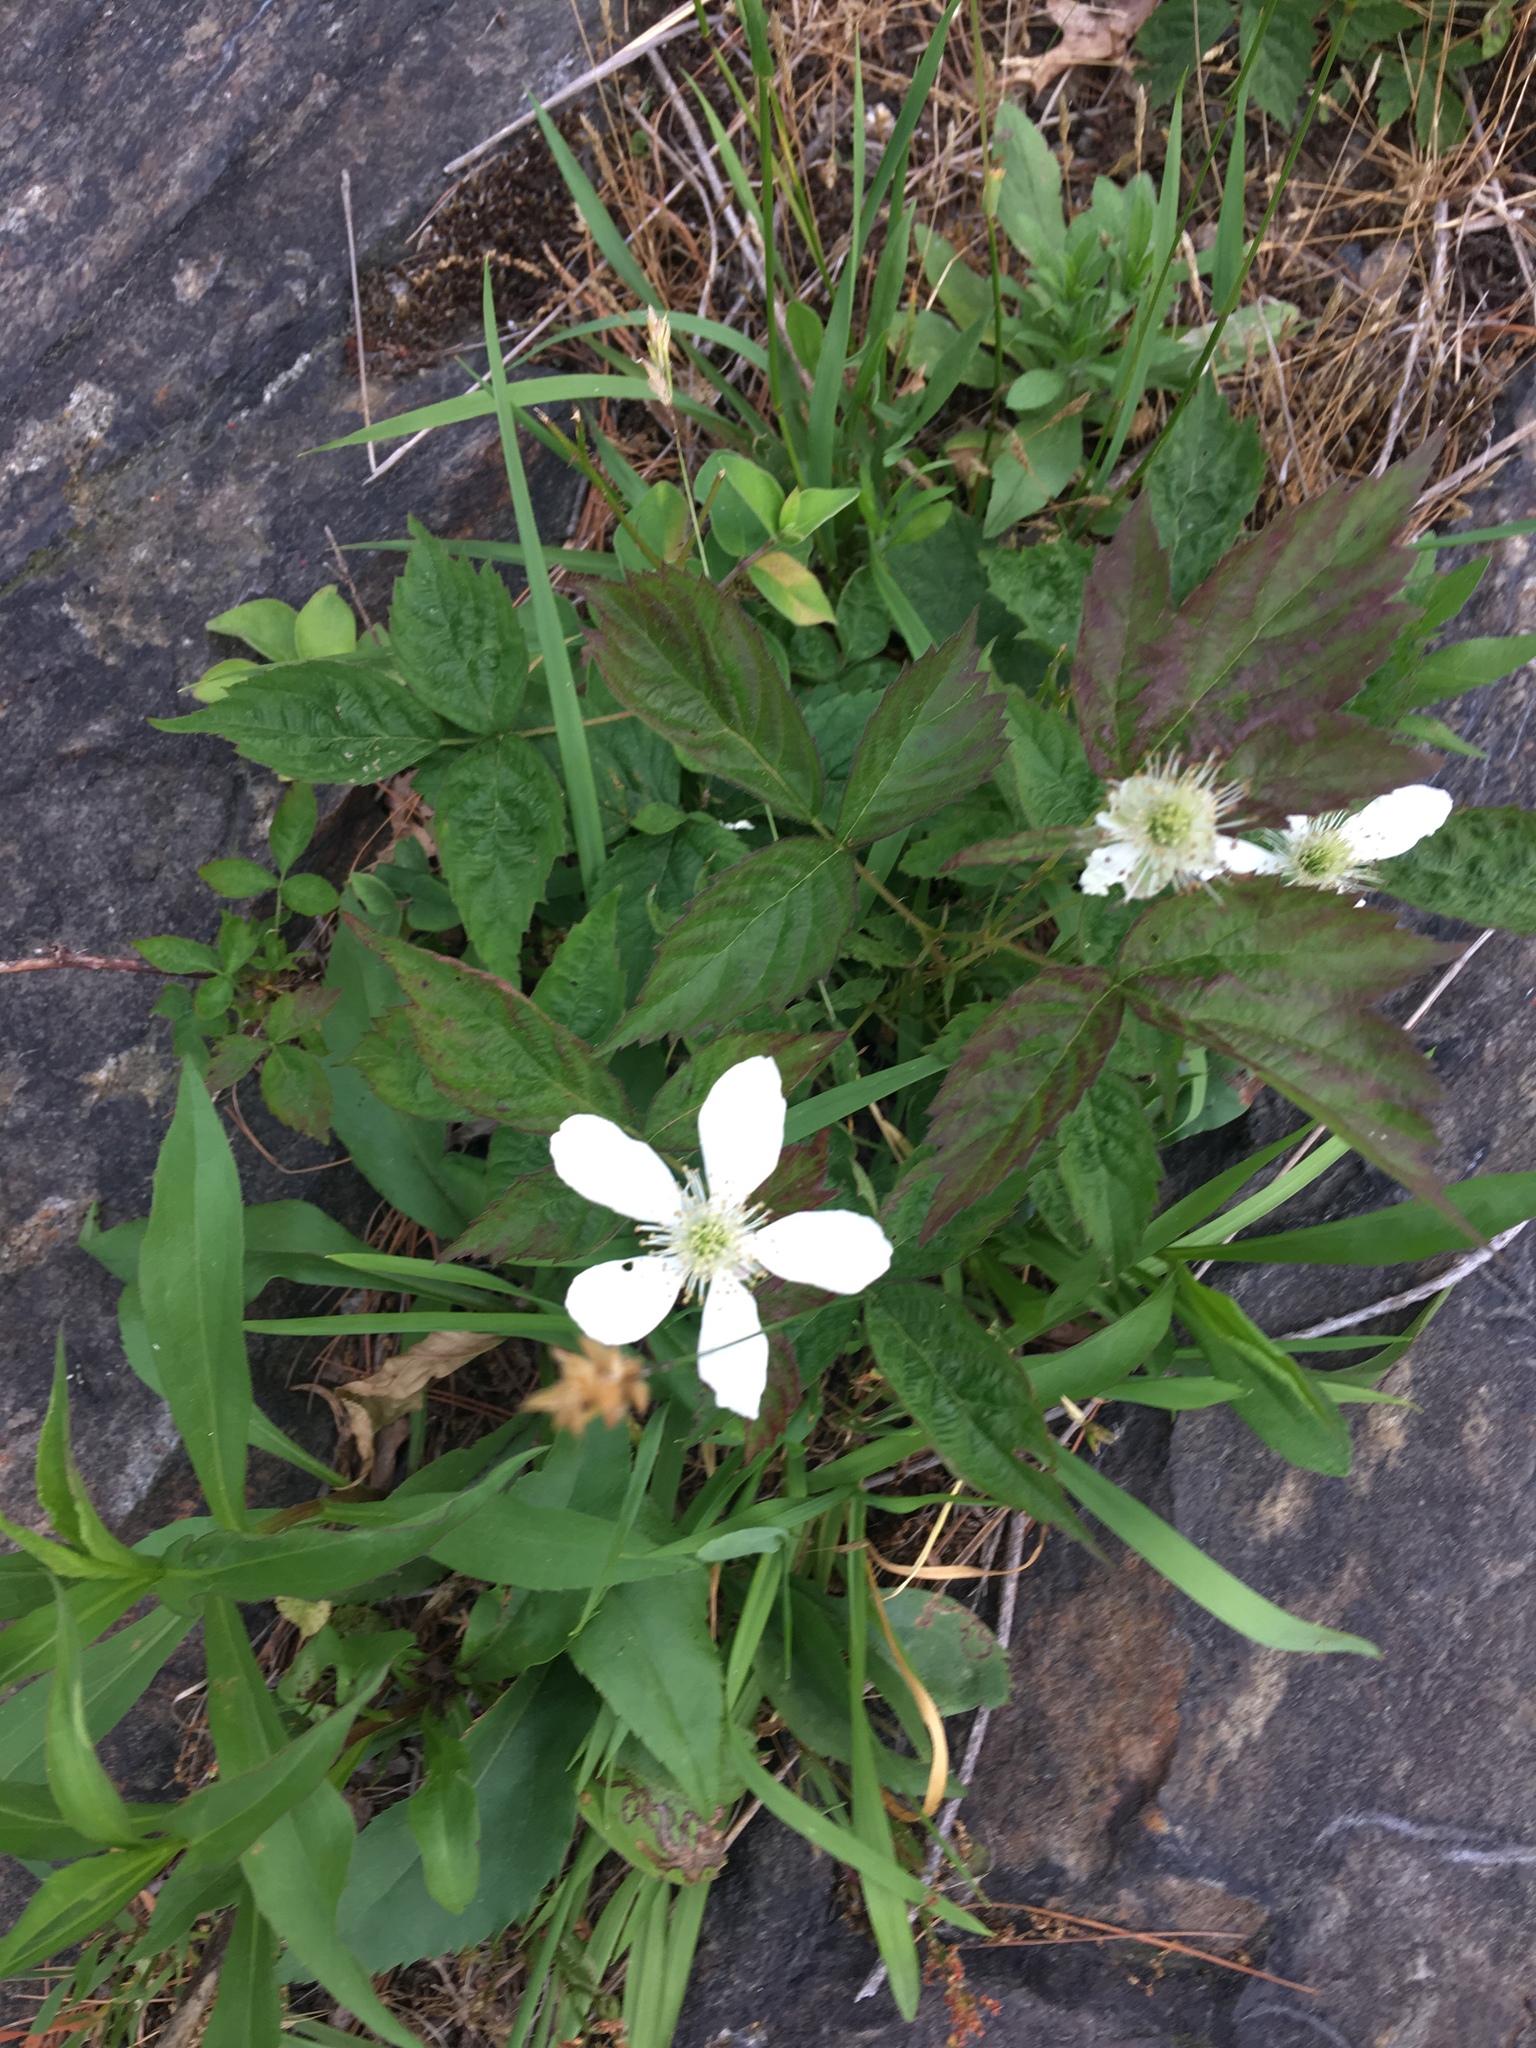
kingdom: Plantae
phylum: Tracheophyta
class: Magnoliopsida
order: Rosales
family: Rosaceae
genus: Rubus
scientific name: Rubus pensilvanicus
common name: Pennsylvania blackberry
